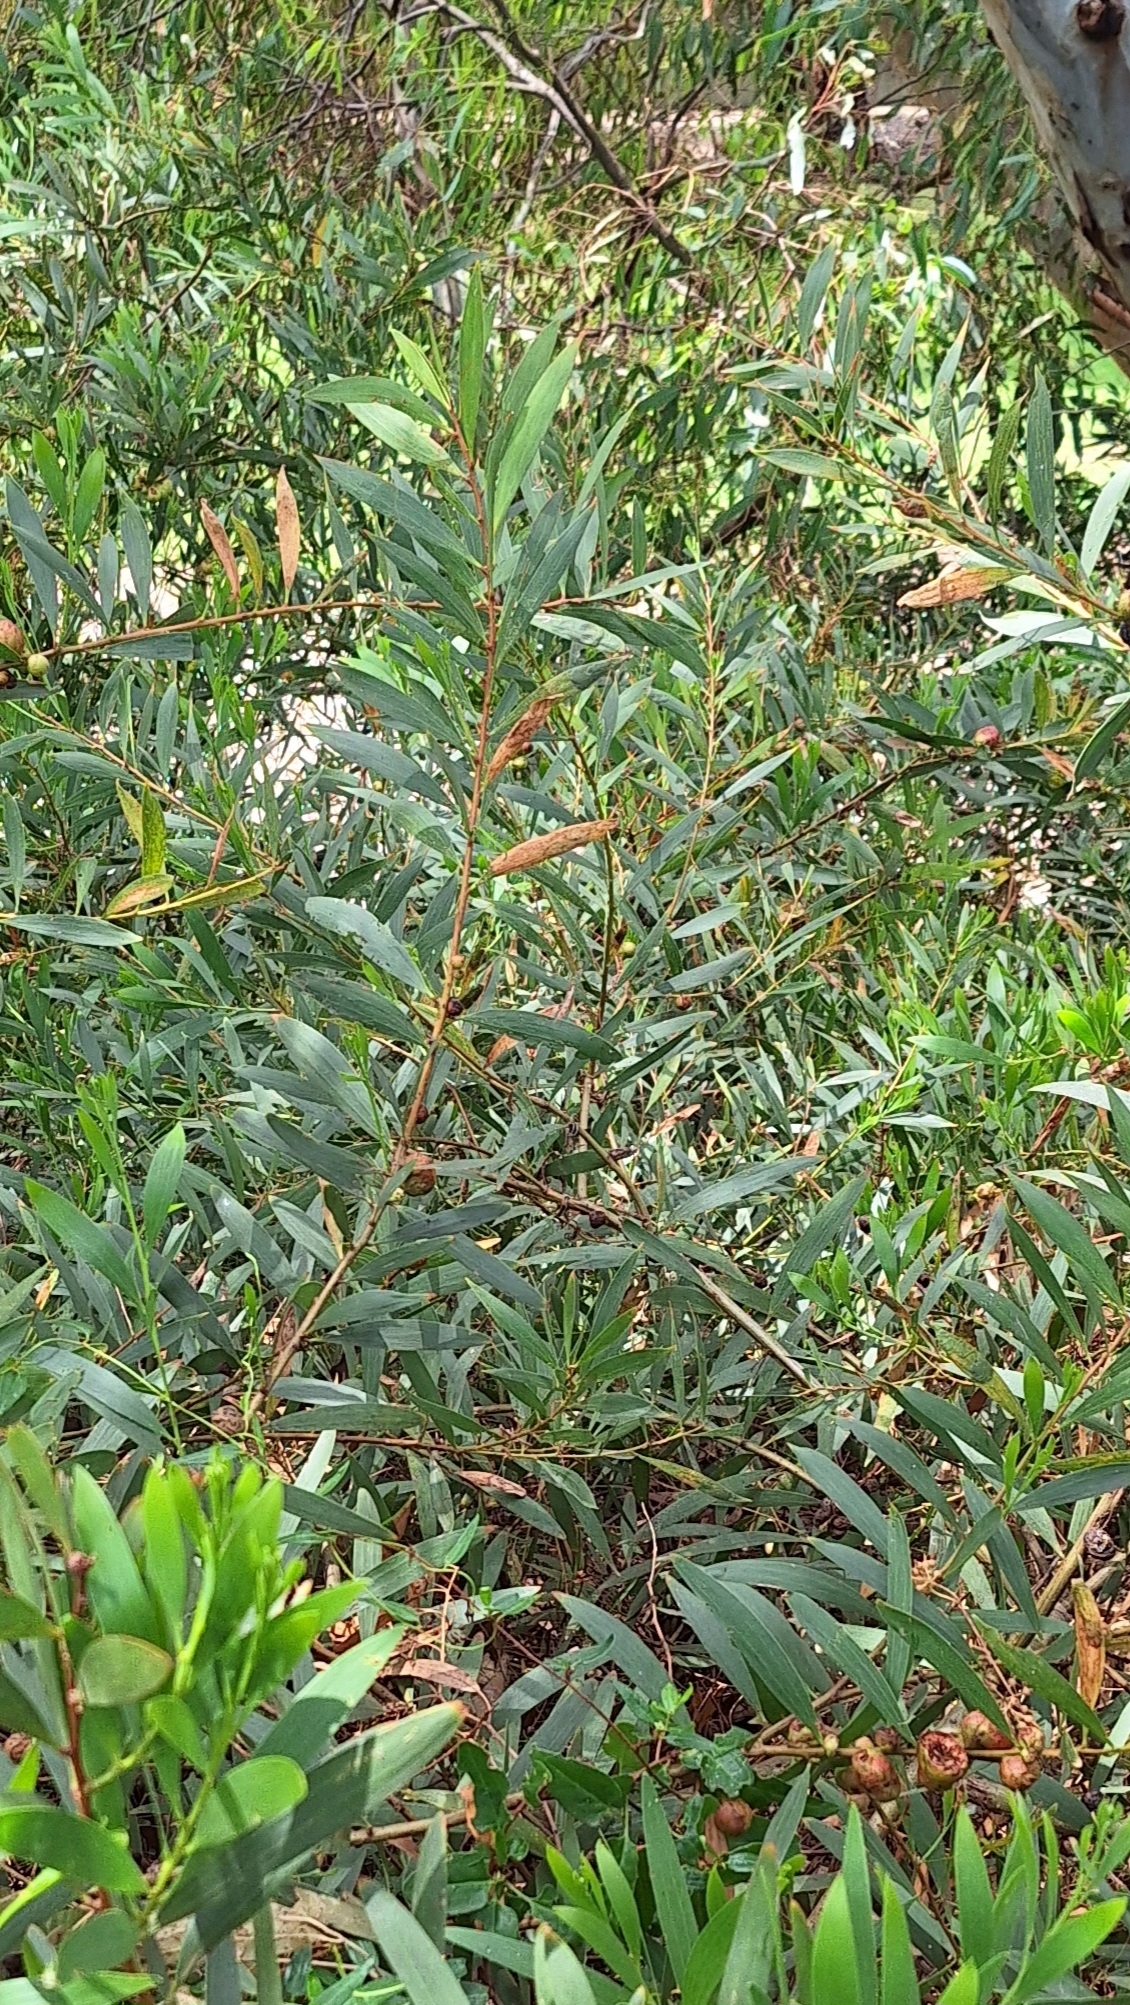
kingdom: Plantae
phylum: Tracheophyta
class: Magnoliopsida
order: Fabales
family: Fabaceae
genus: Acacia
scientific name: Acacia longifolia
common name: Sydney golden wattle
